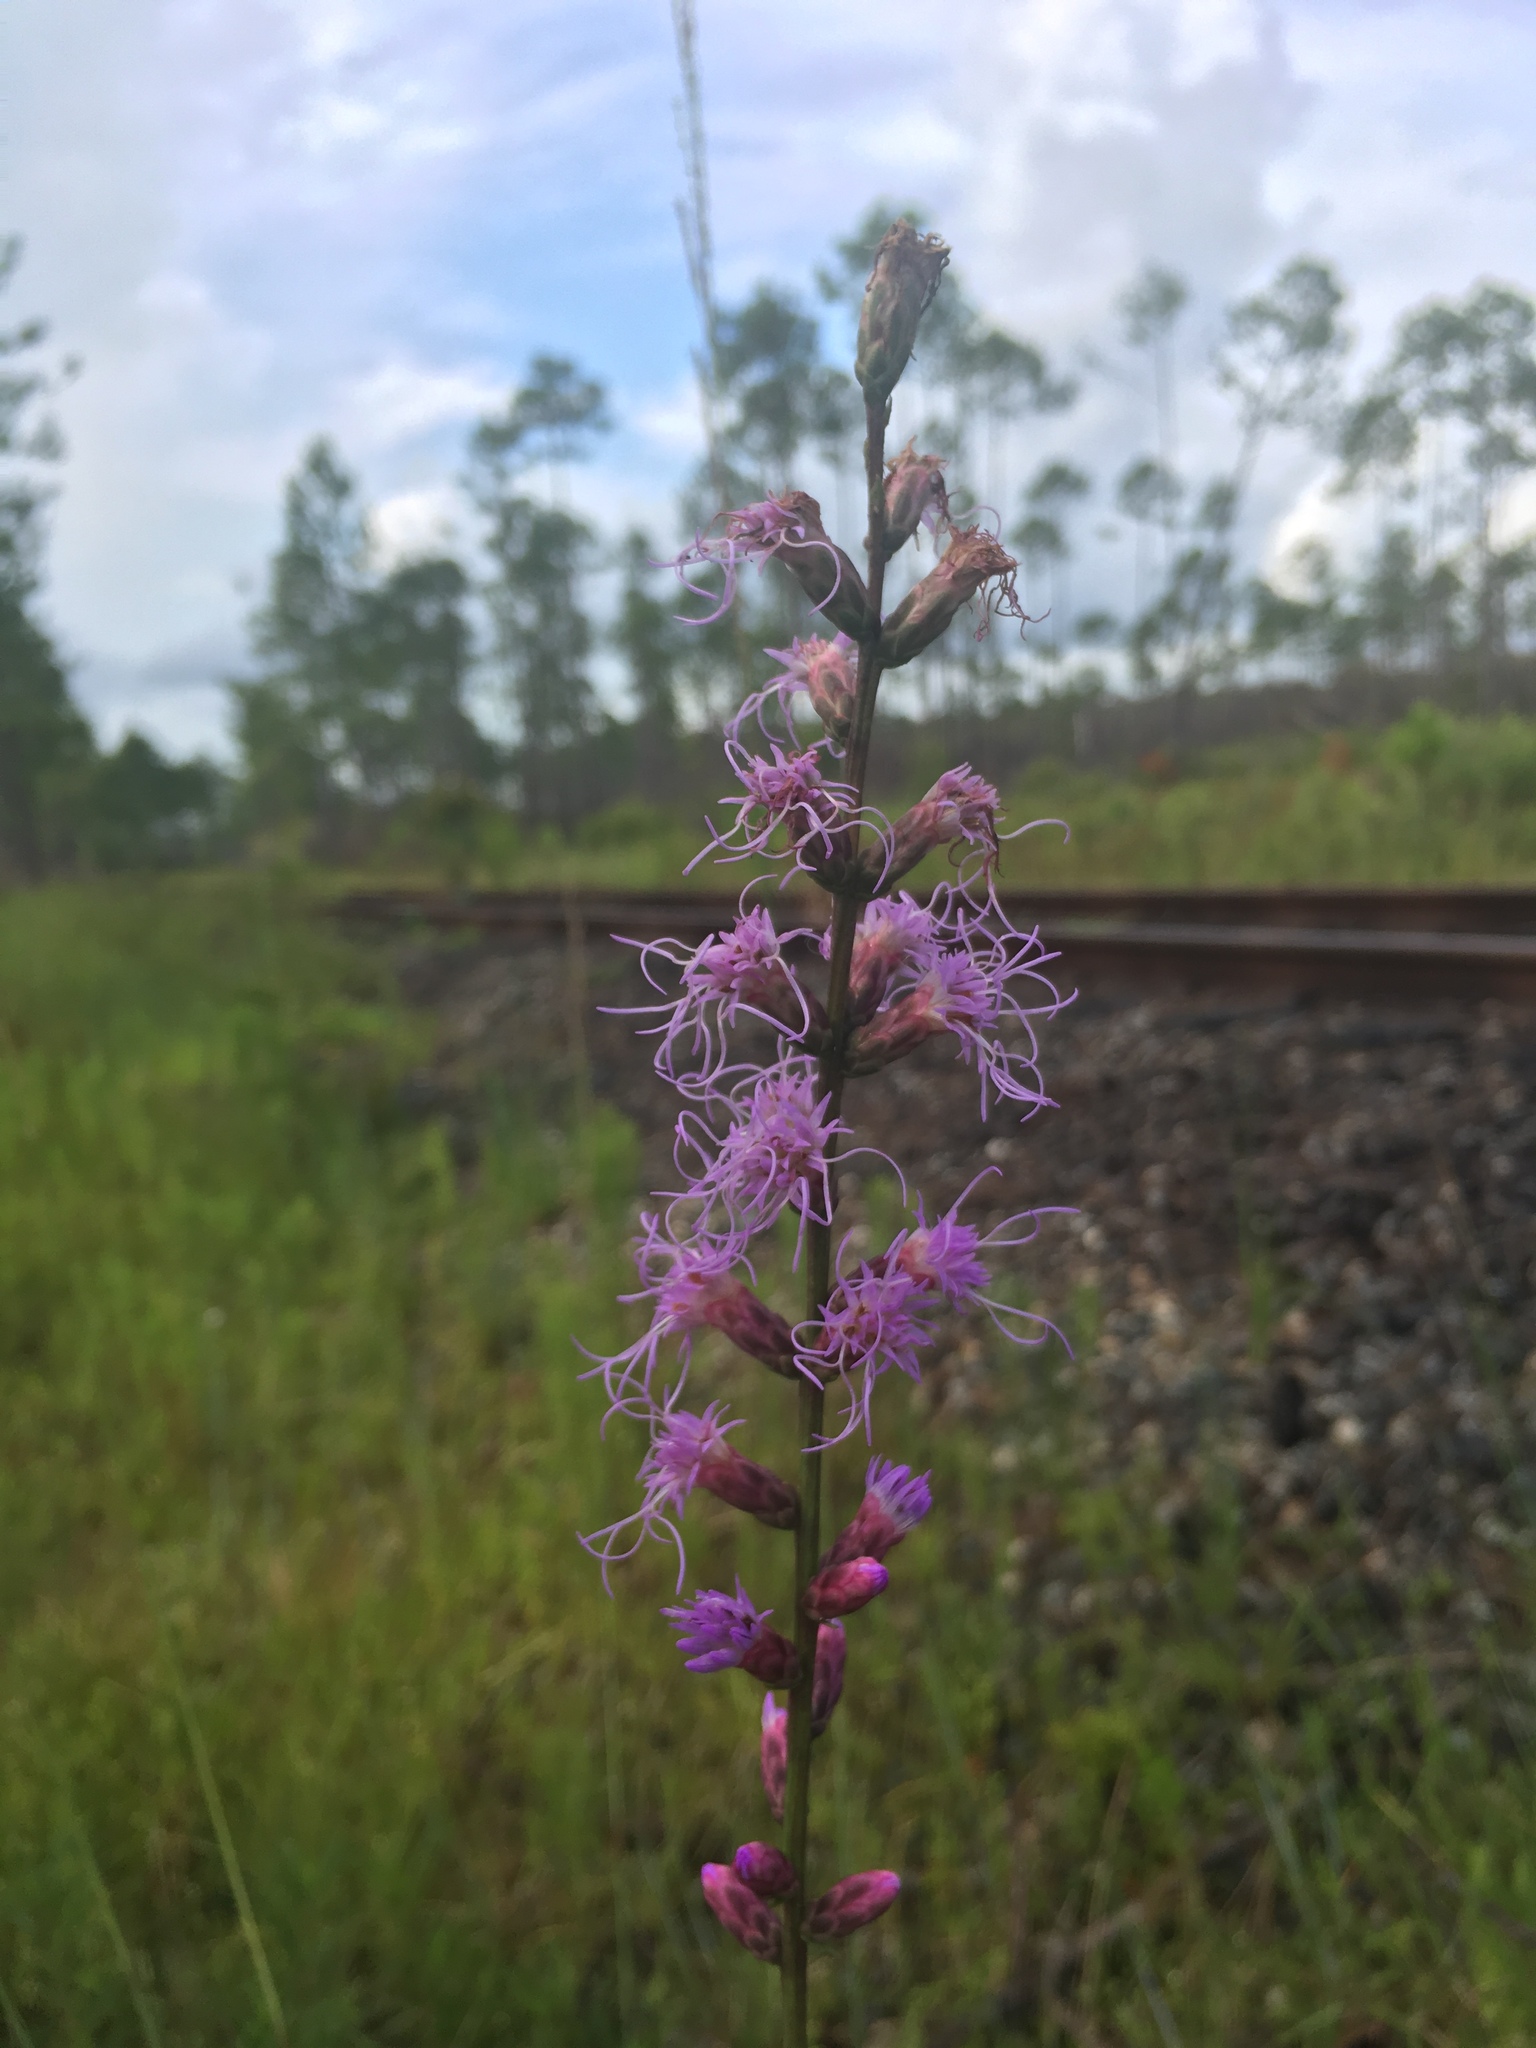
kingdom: Plantae
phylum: Tracheophyta
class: Magnoliopsida
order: Asterales
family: Asteraceae
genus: Liatris
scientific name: Liatris spicata
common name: Florist gayfeather
